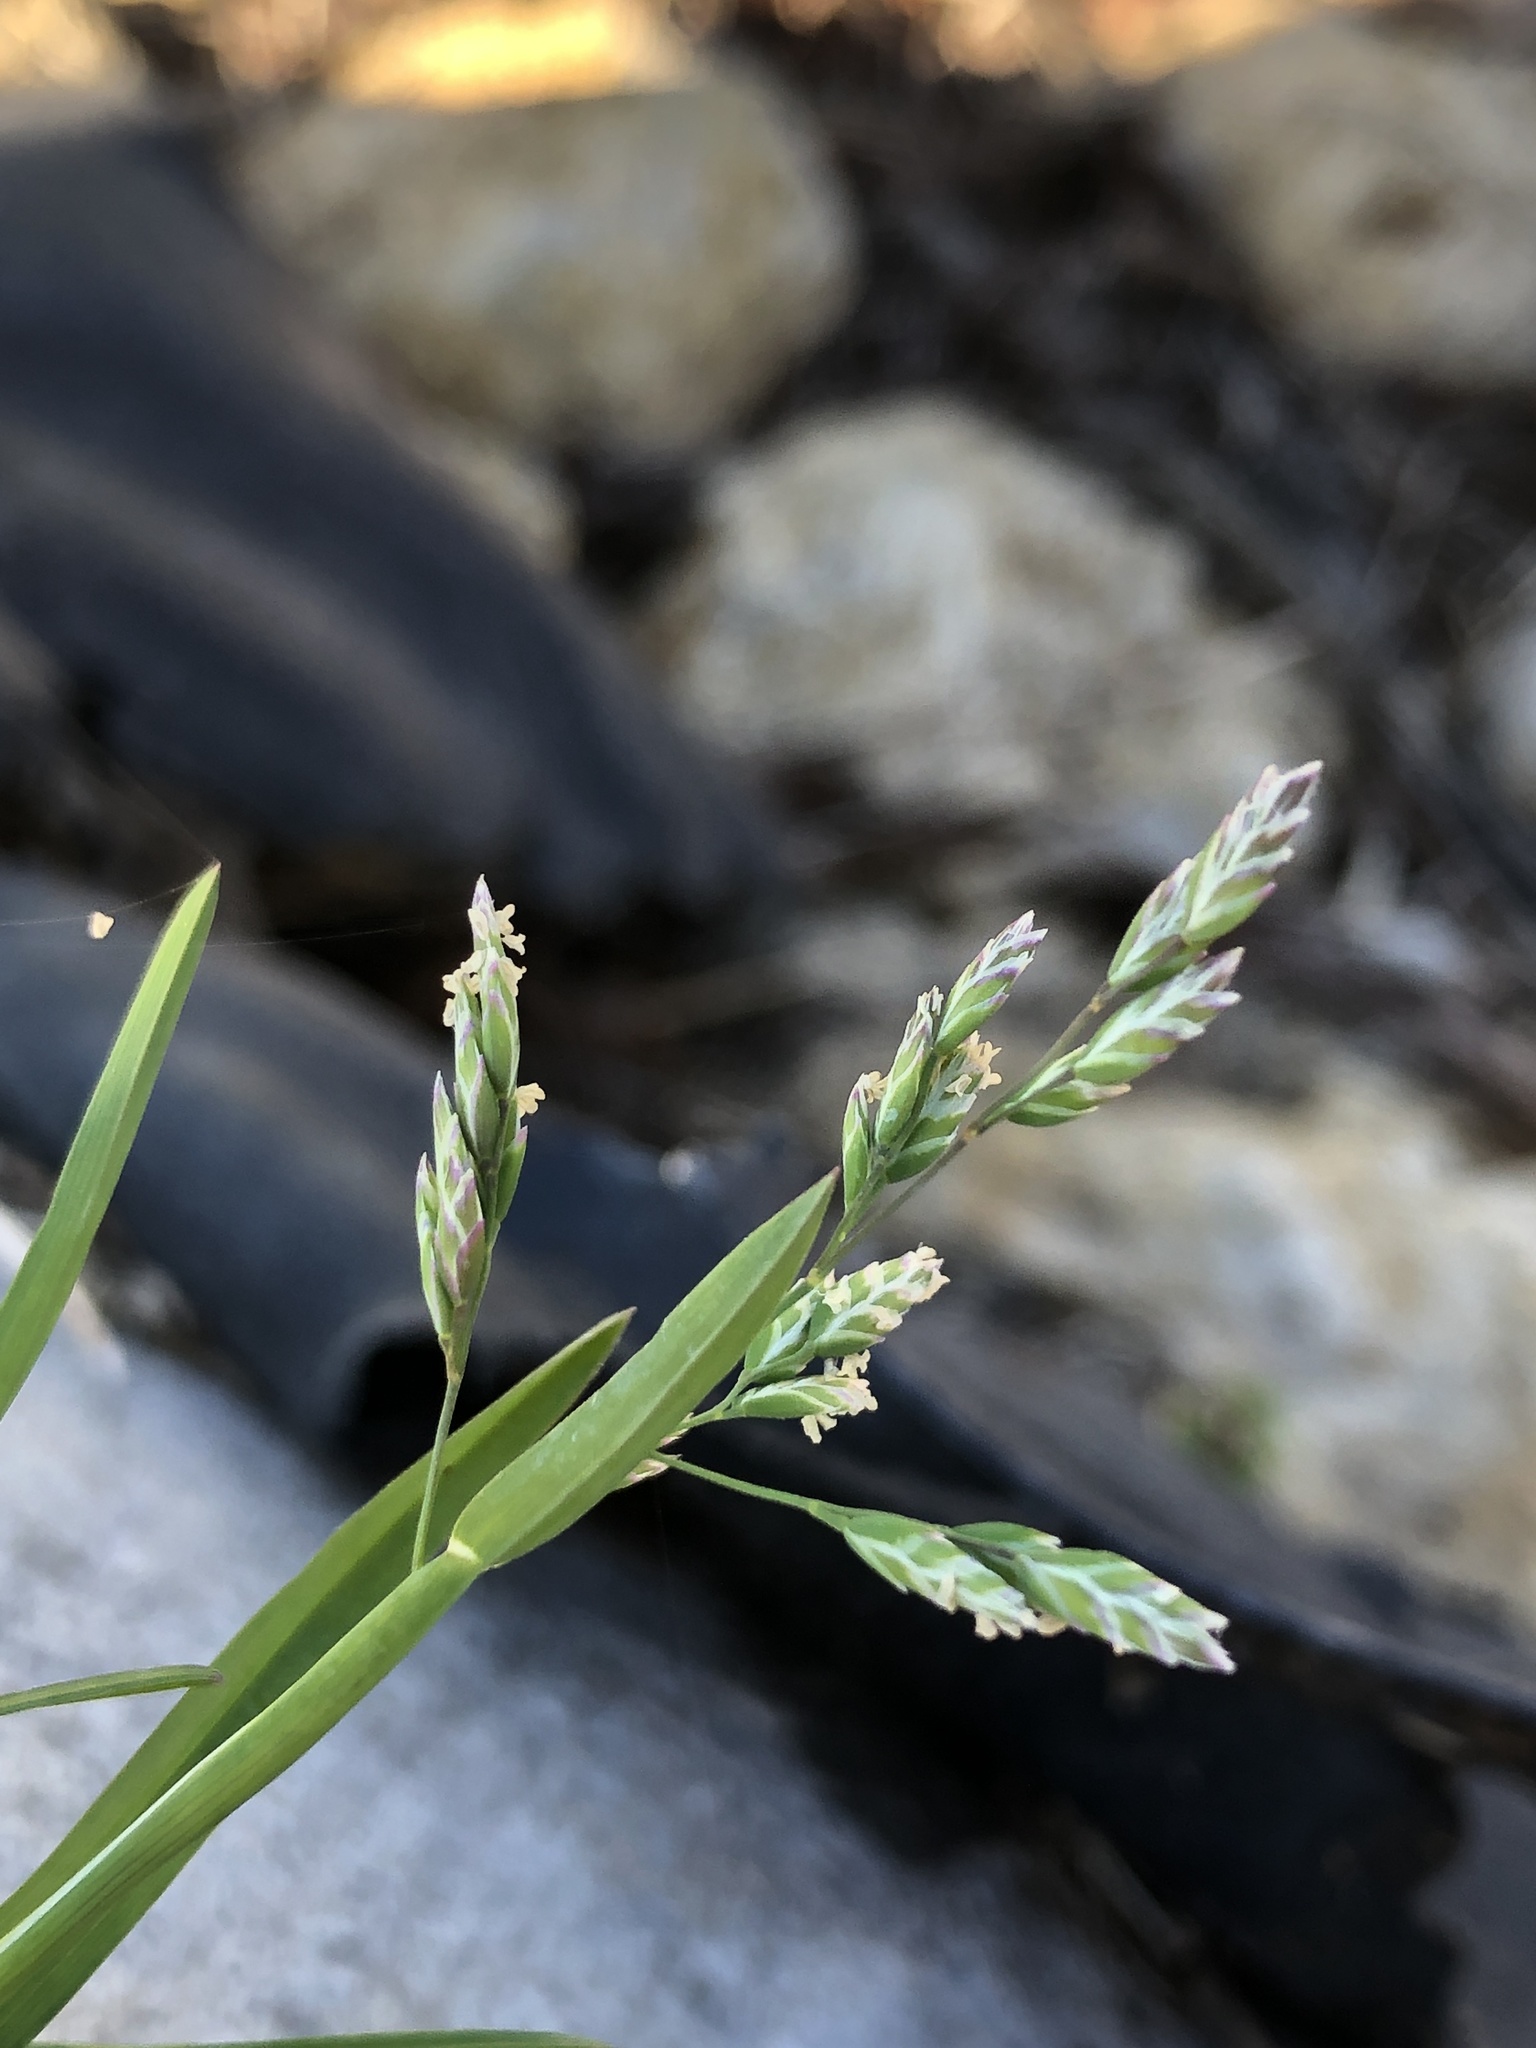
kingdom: Plantae
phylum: Tracheophyta
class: Liliopsida
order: Poales
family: Poaceae
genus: Poa
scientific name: Poa annua
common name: Annual bluegrass
